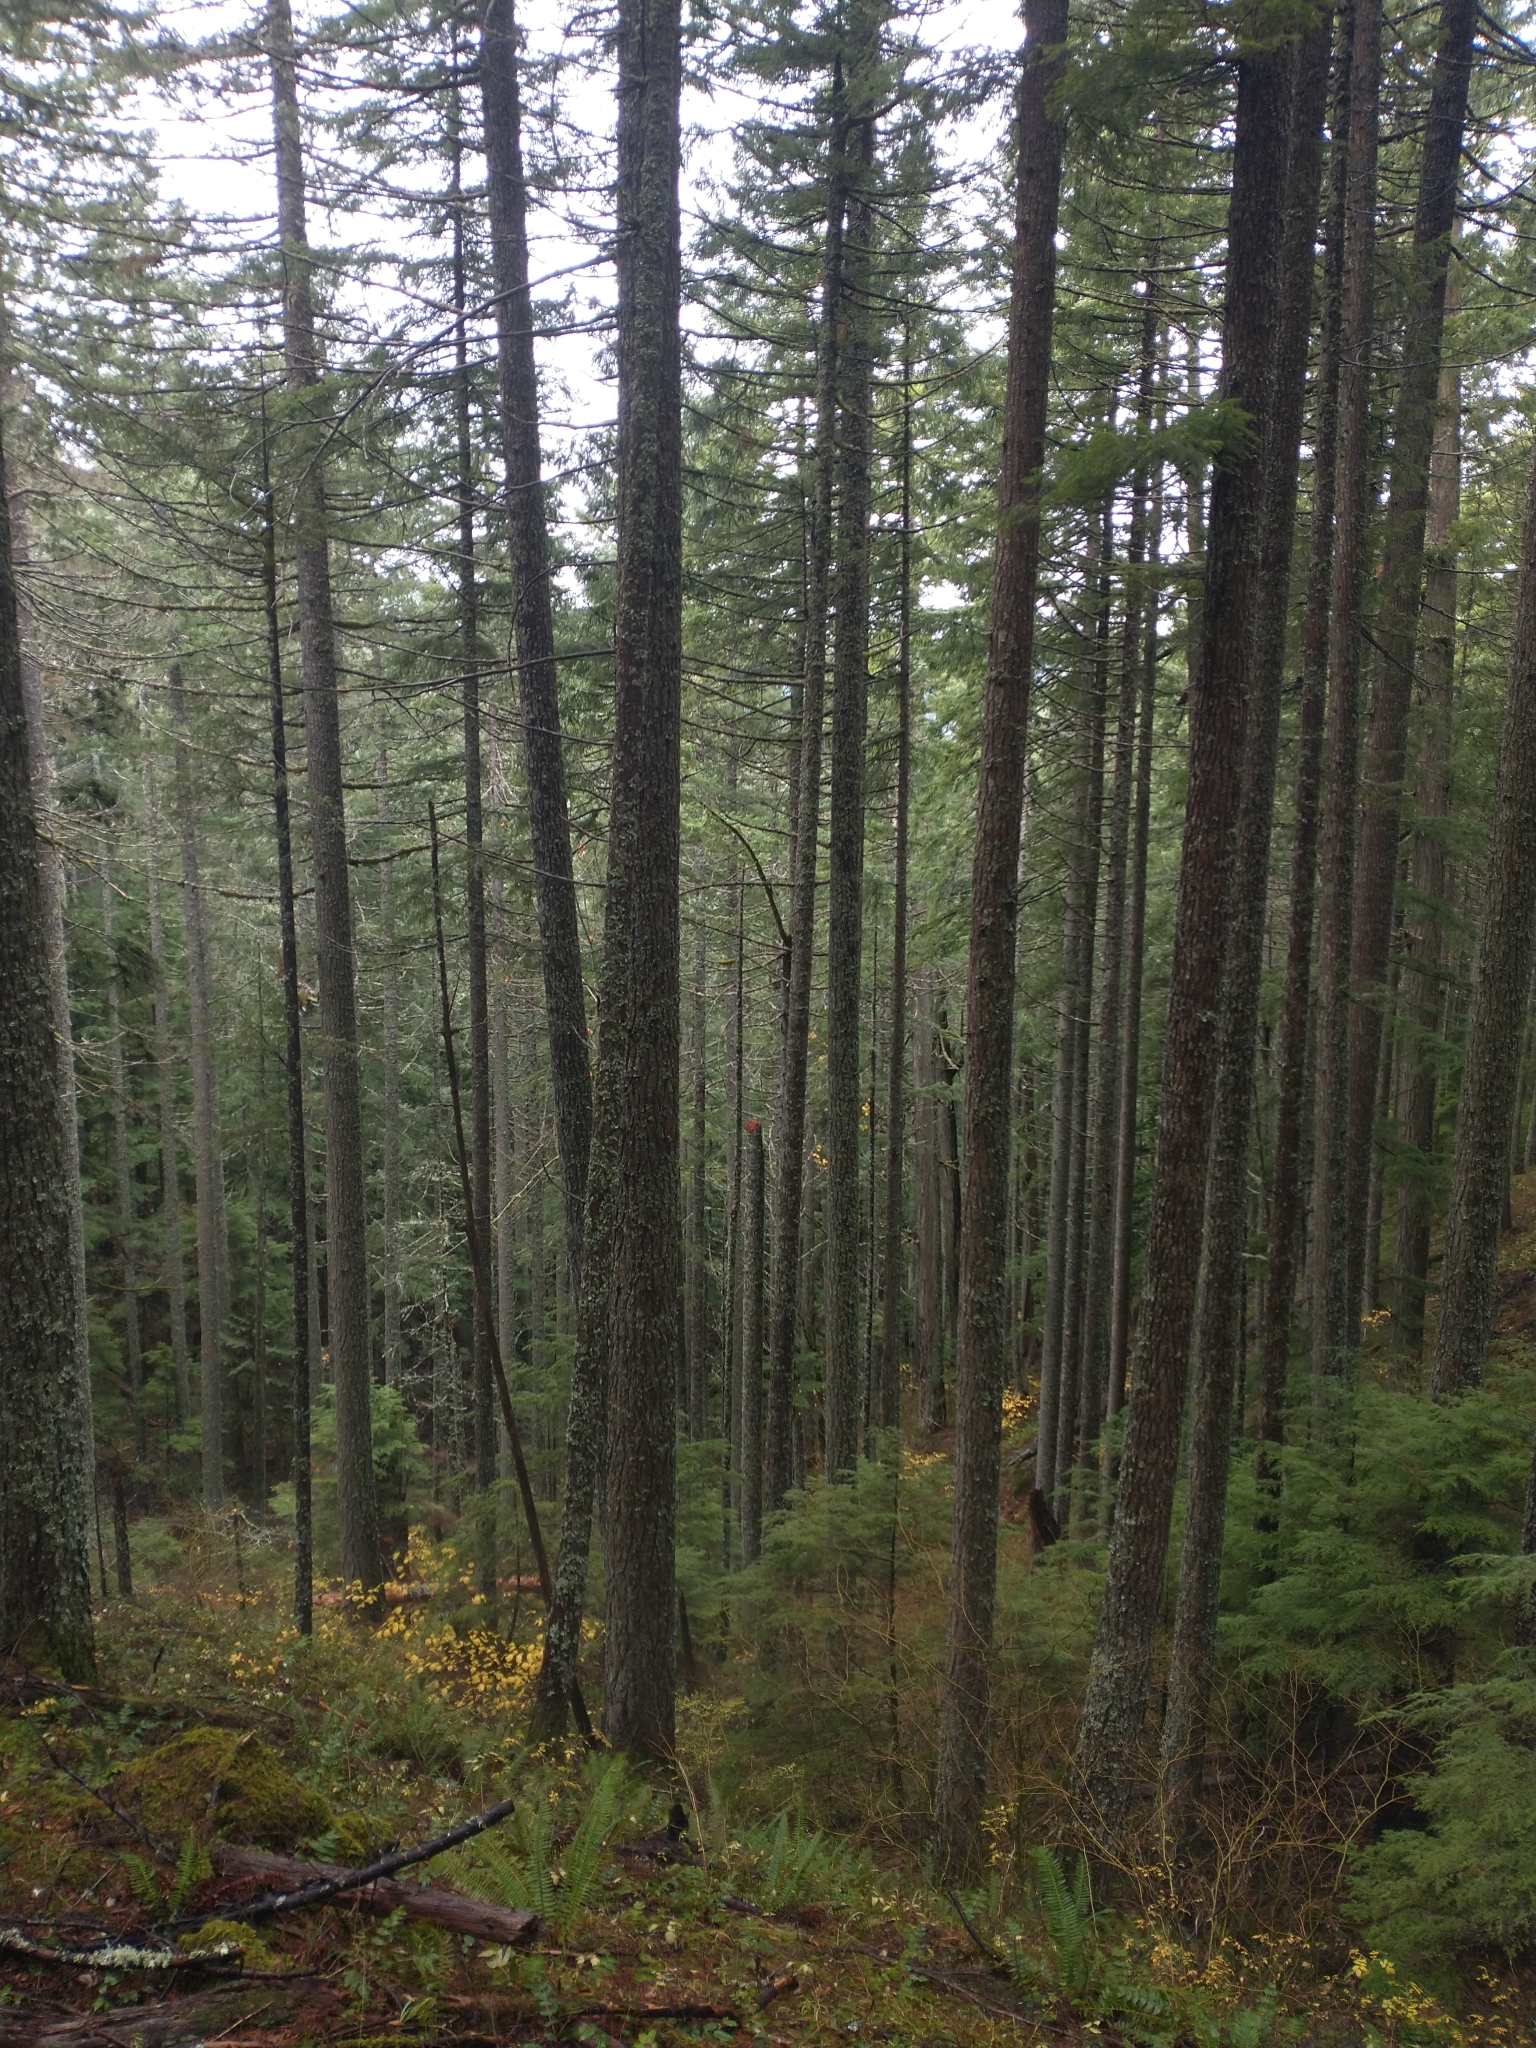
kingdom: Plantae
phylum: Tracheophyta
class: Pinopsida
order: Pinales
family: Pinaceae
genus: Pseudotsuga
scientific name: Pseudotsuga menziesii
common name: Douglas fir
